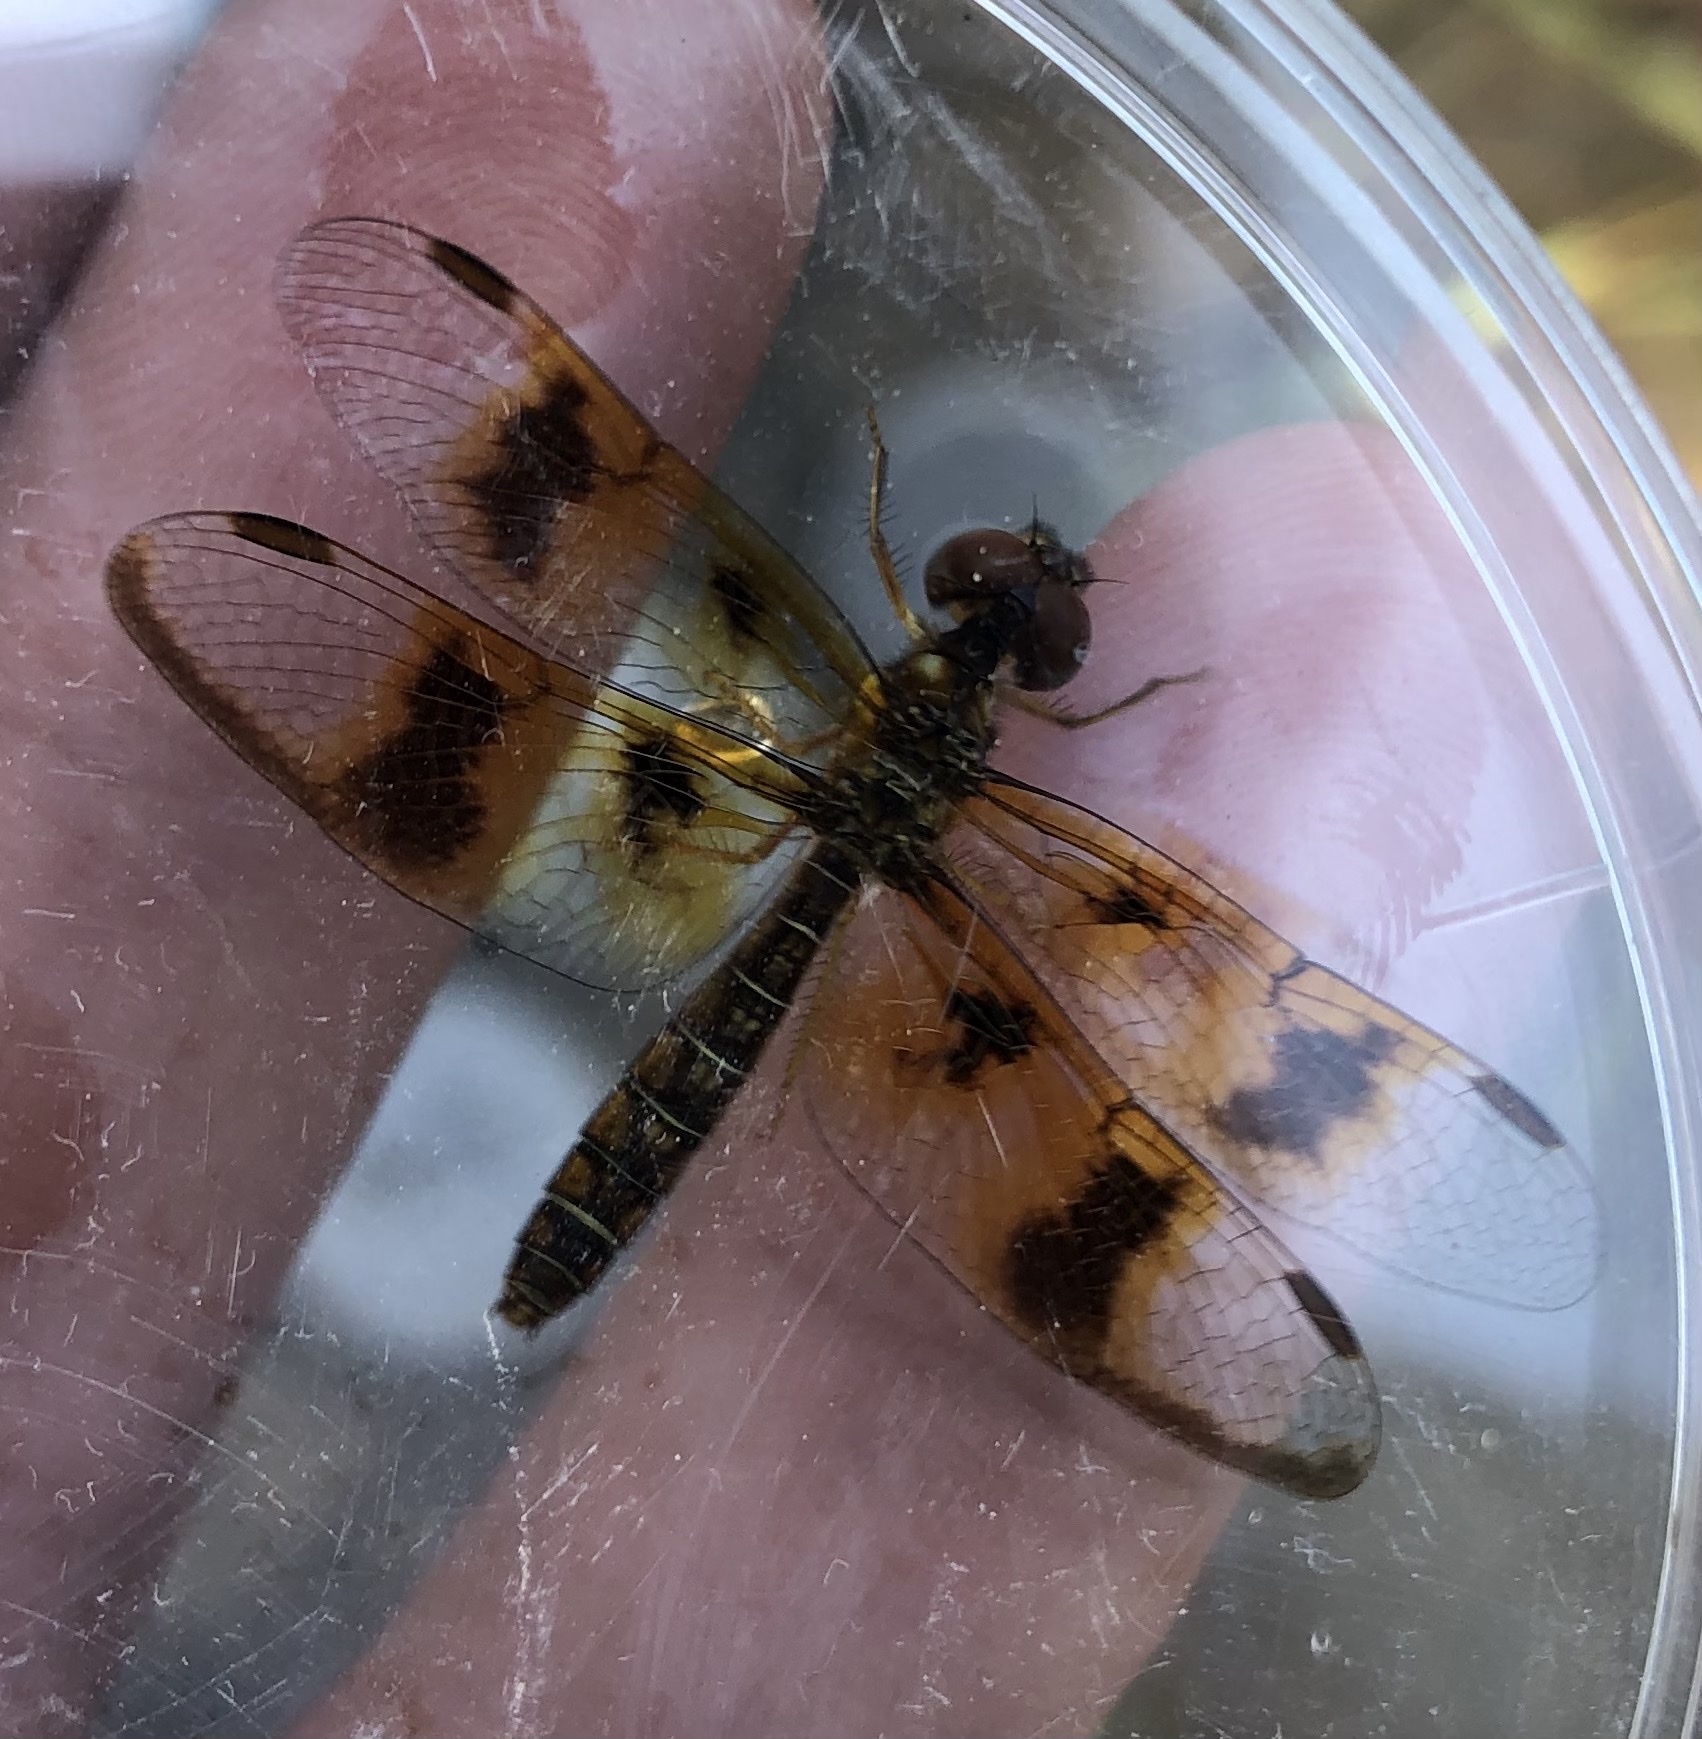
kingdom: Animalia
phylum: Arthropoda
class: Insecta
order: Odonata
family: Libellulidae
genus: Perithemis
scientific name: Perithemis tenera
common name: Eastern amberwing
